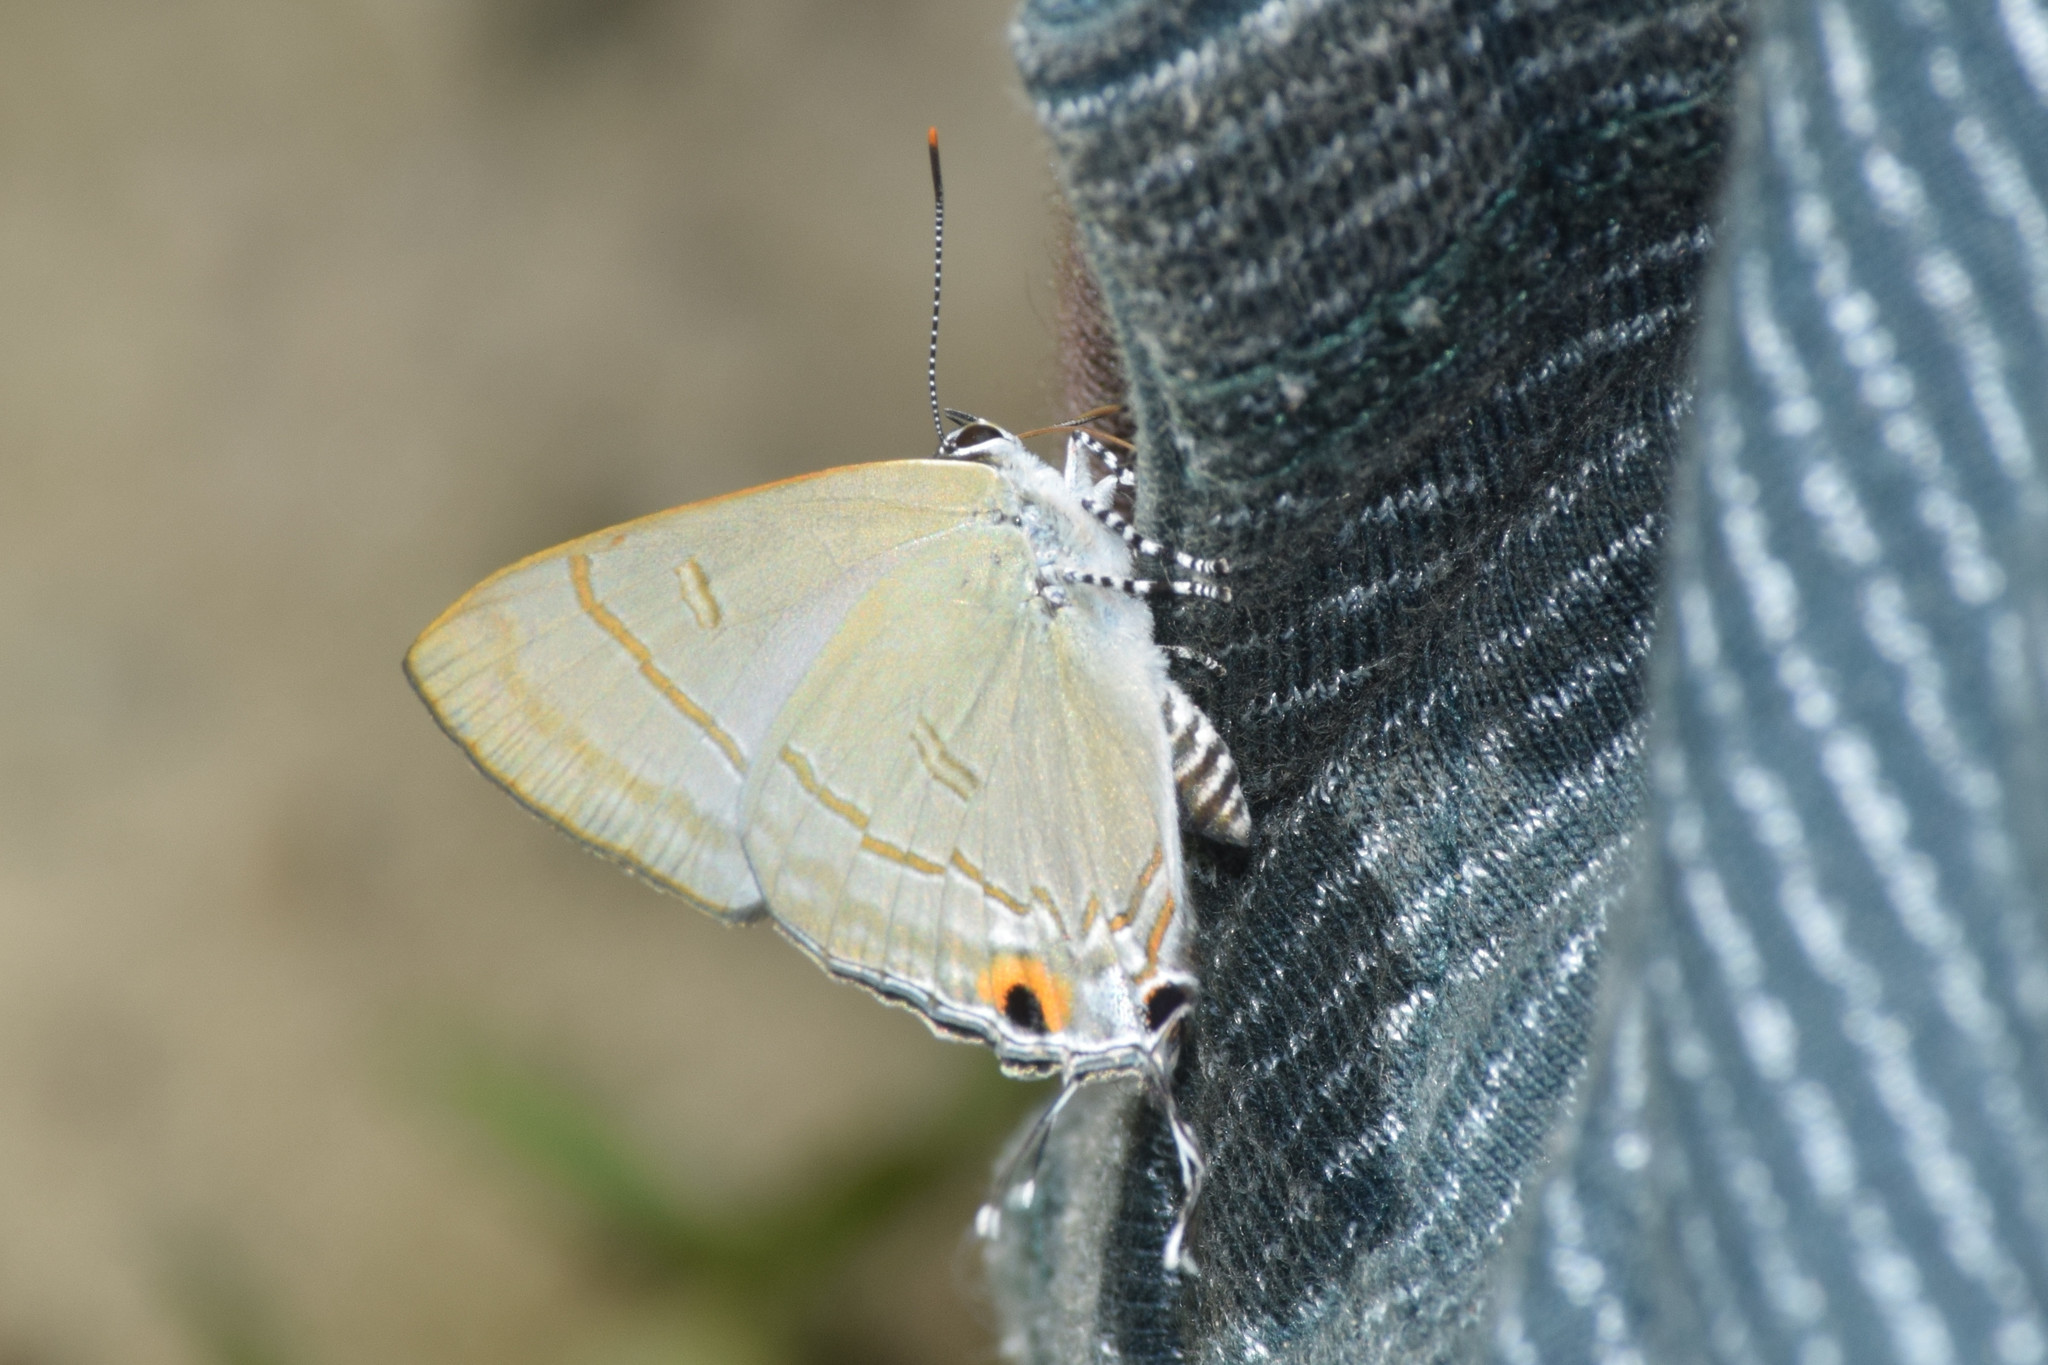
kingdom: Animalia
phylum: Arthropoda
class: Insecta
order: Lepidoptera
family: Lycaenidae
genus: Hypolycaena
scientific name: Hypolycaena erylus
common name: Common tit
